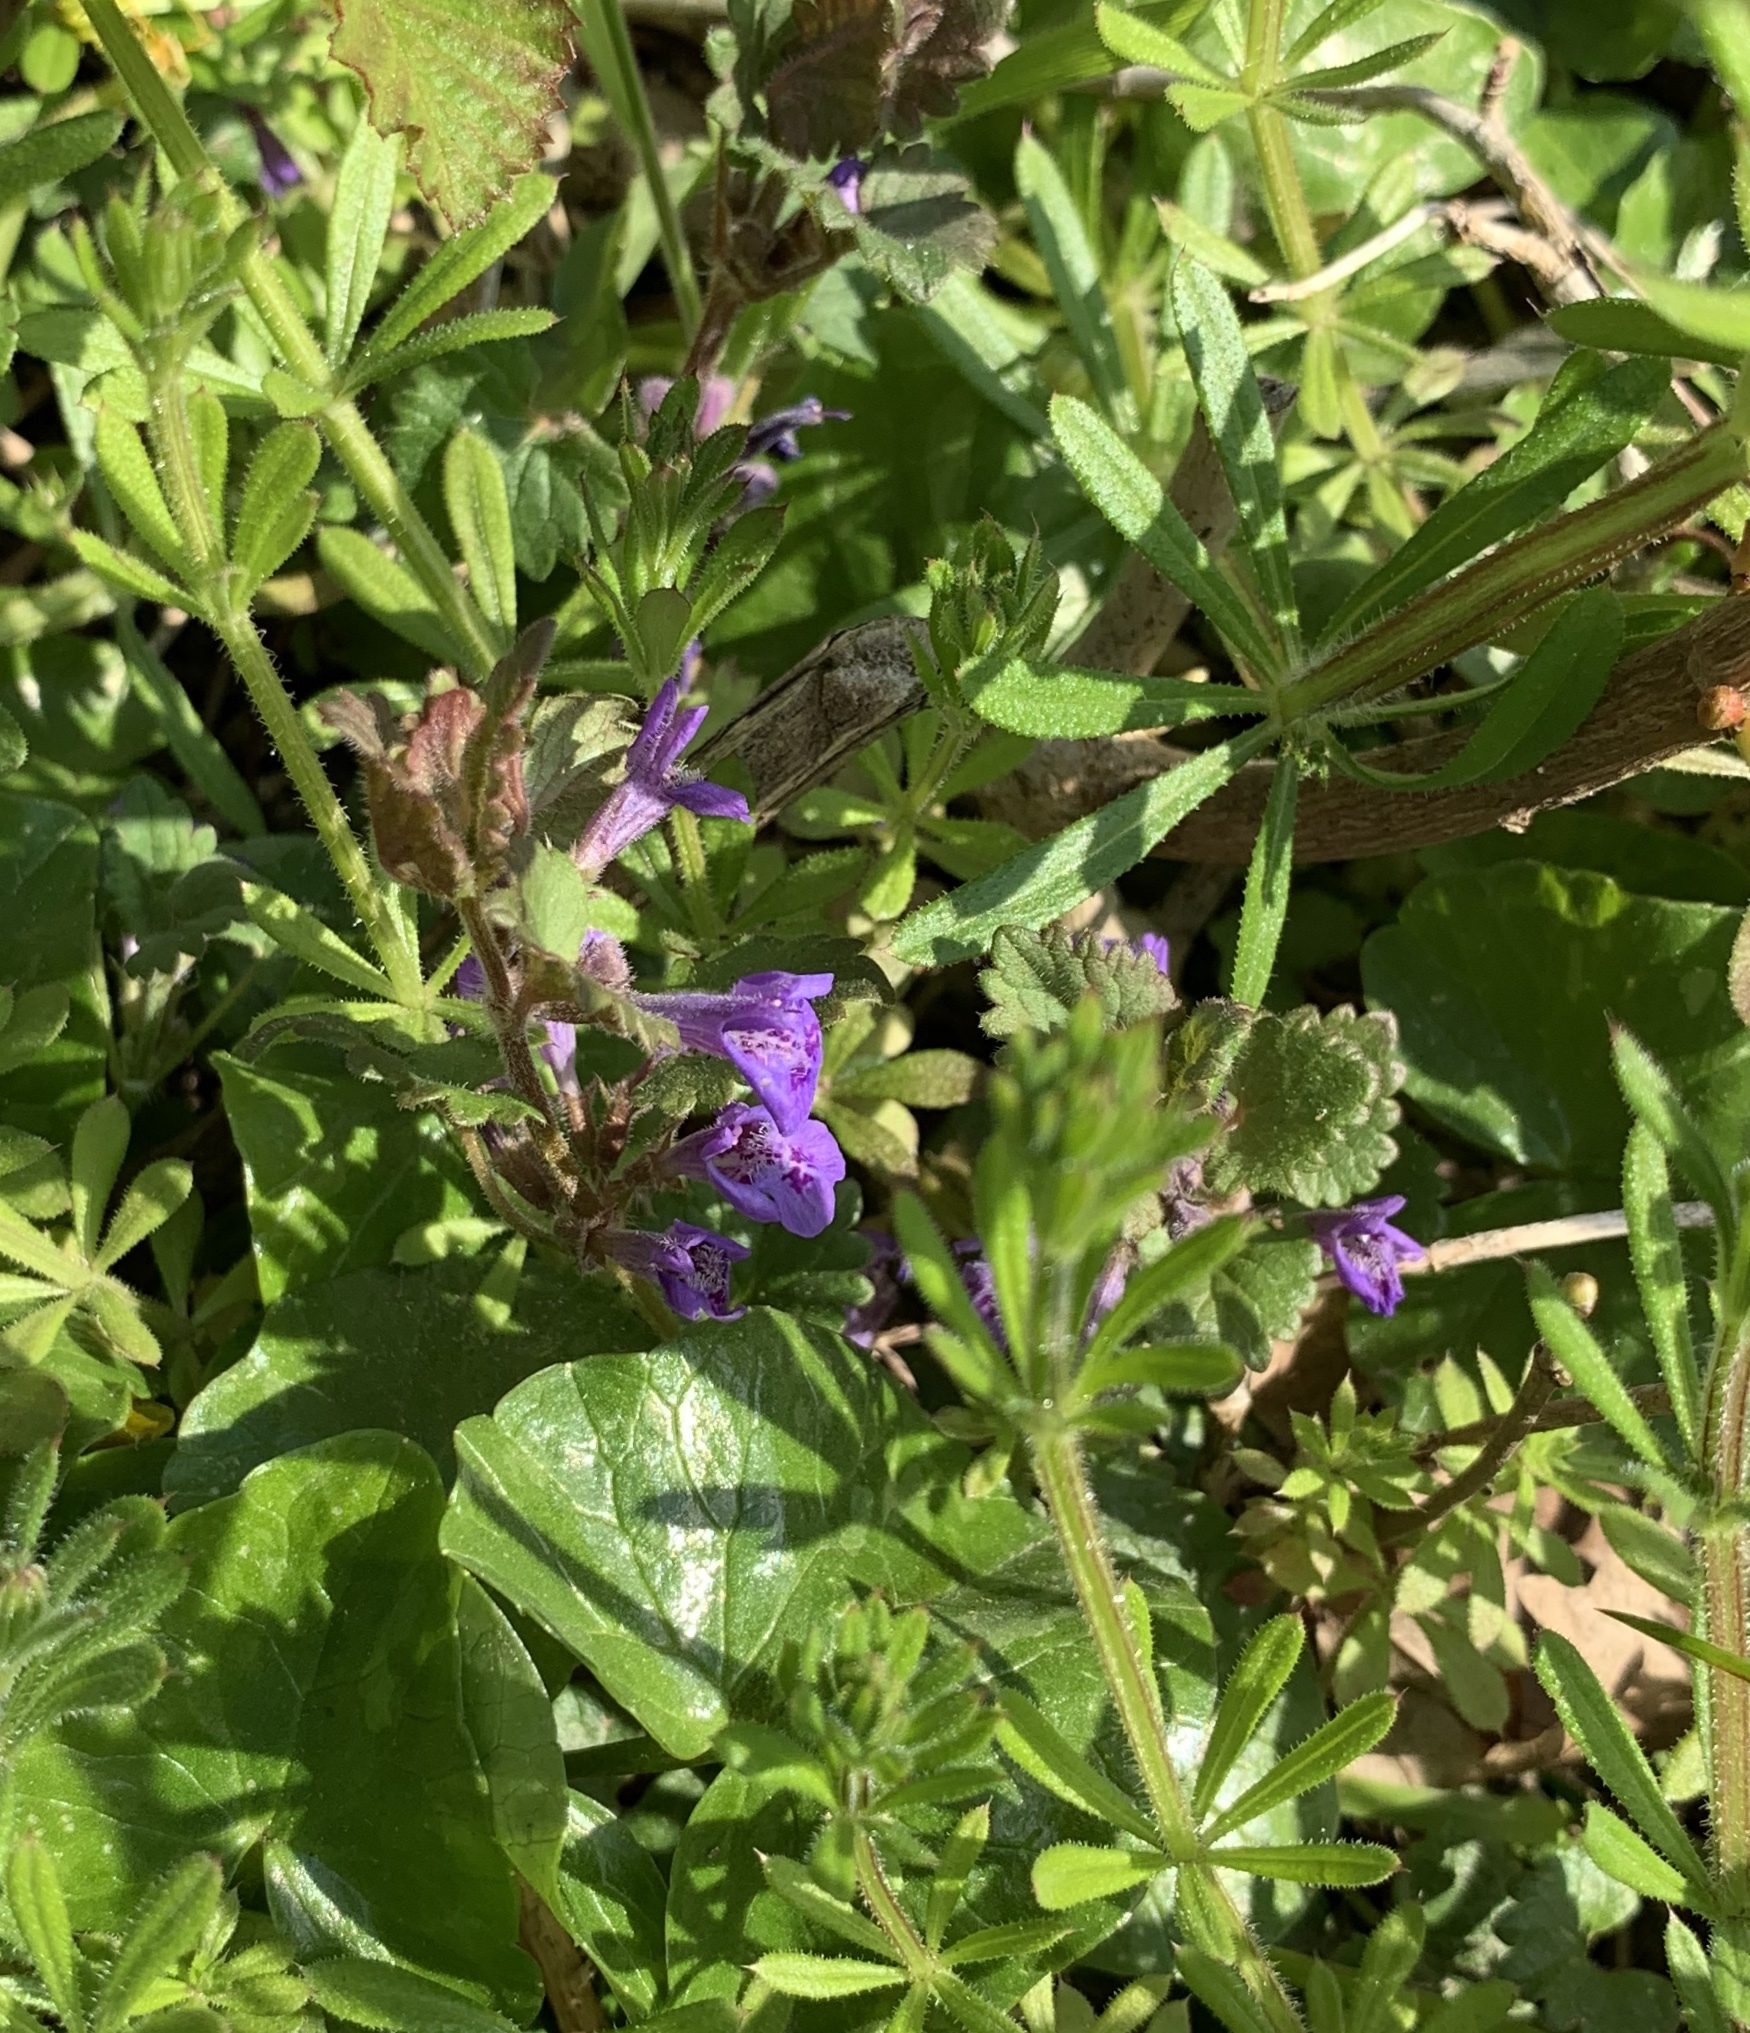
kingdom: Plantae
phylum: Tracheophyta
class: Magnoliopsida
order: Lamiales
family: Lamiaceae
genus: Glechoma
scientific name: Glechoma hederacea
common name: Ground ivy
